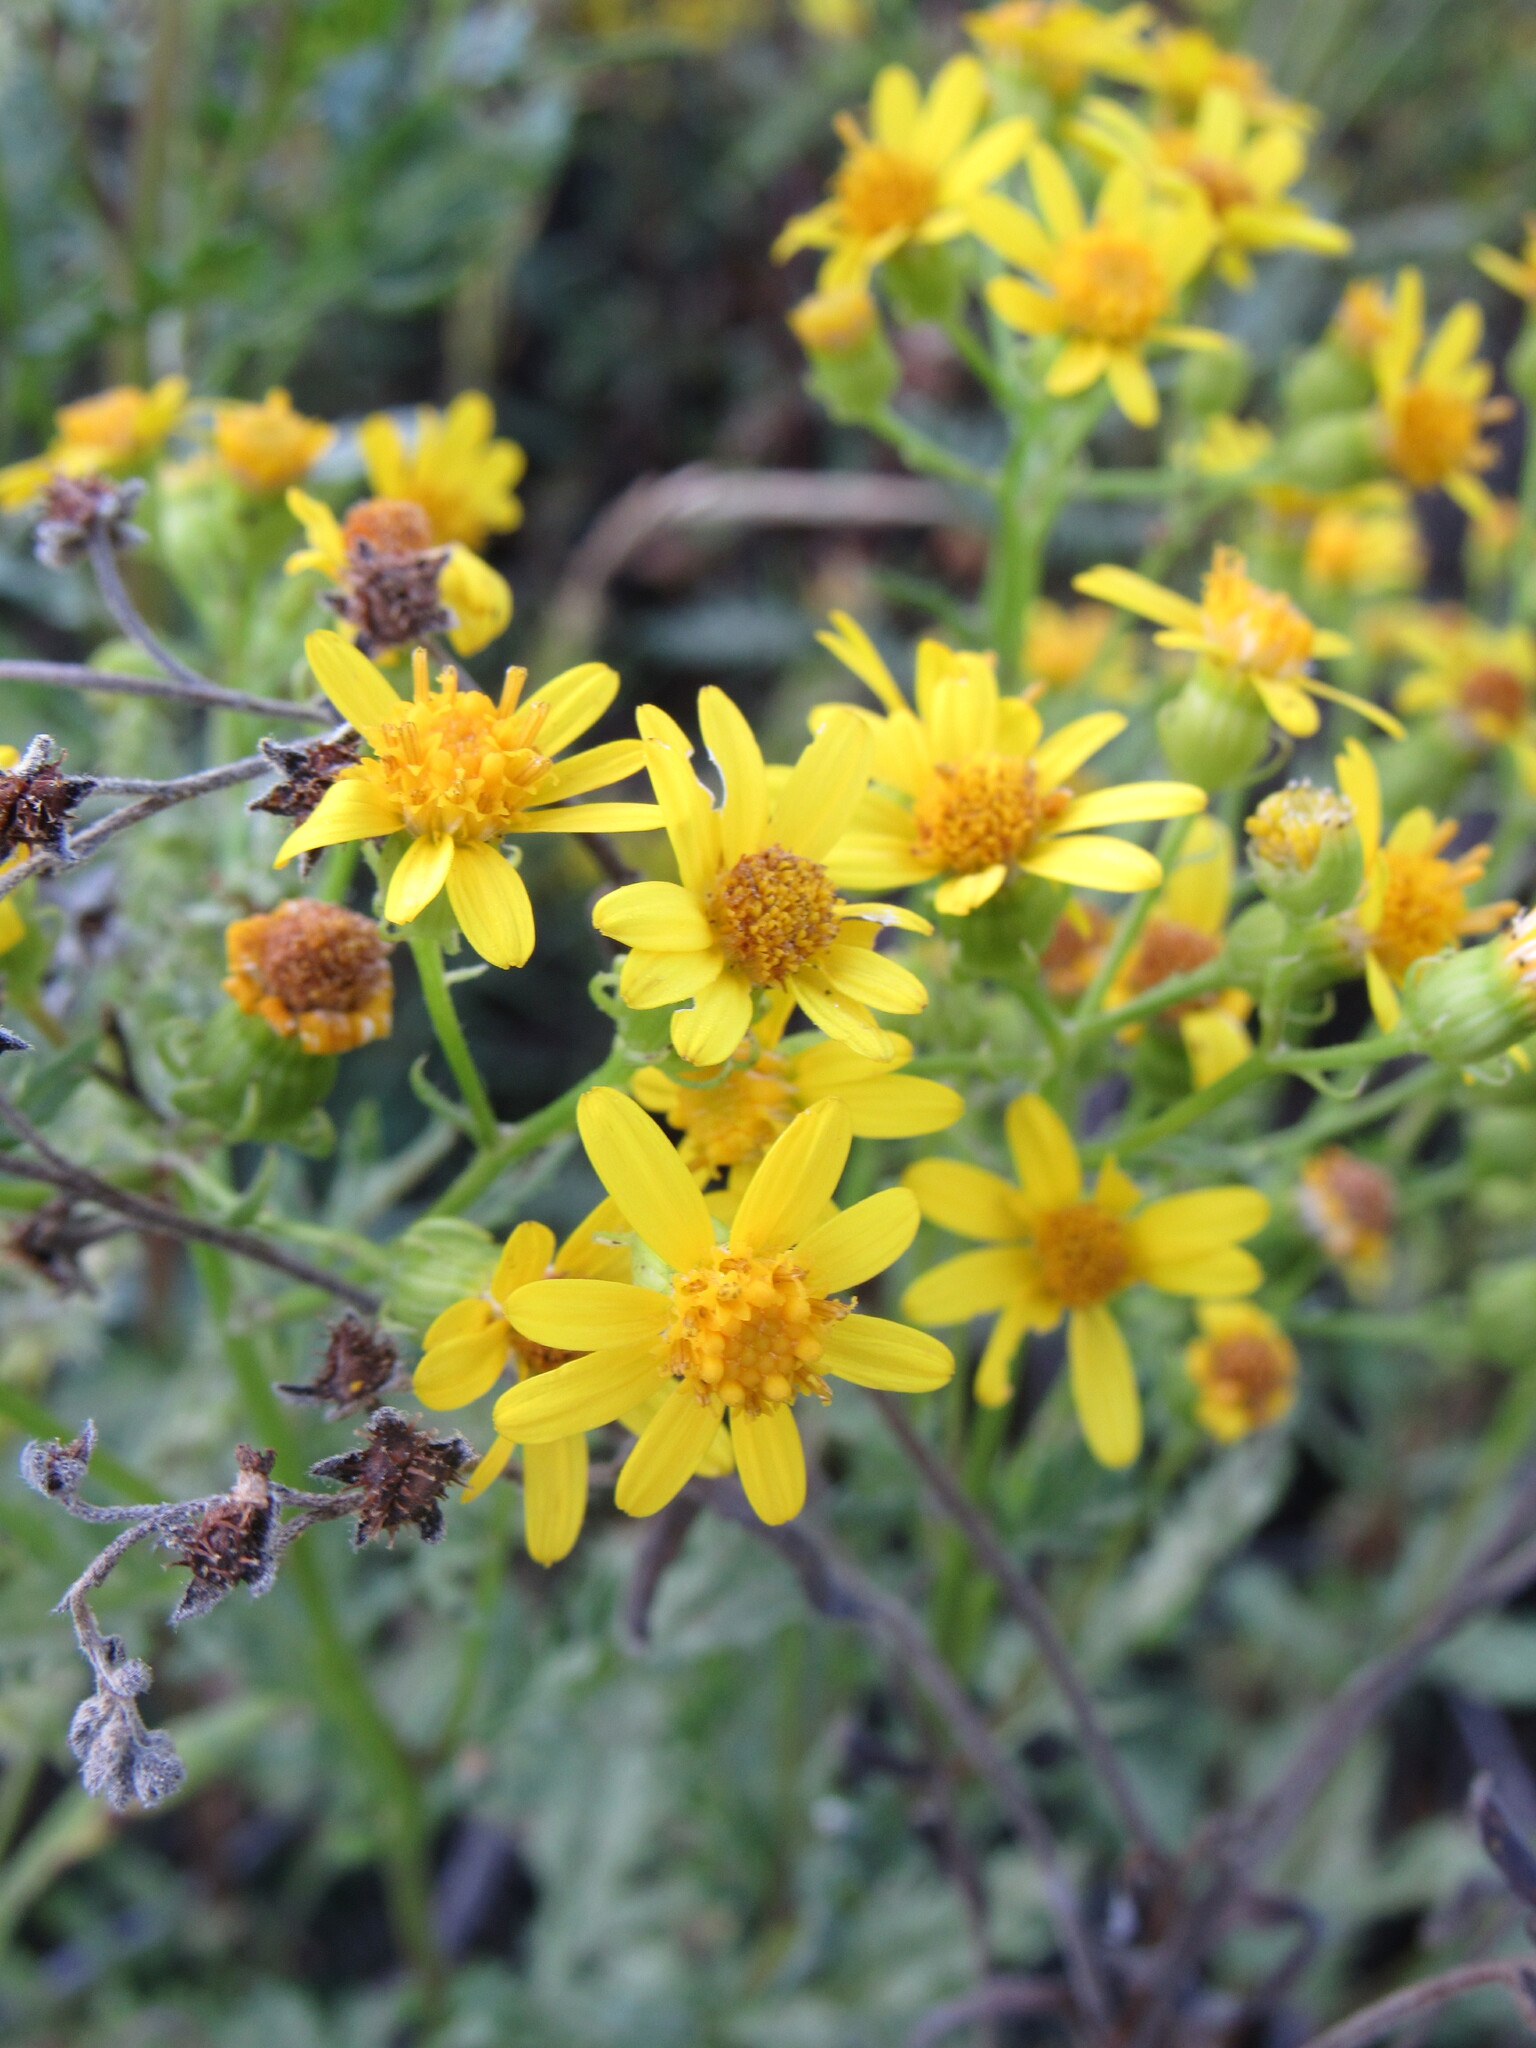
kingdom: Plantae
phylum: Tracheophyta
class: Magnoliopsida
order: Asterales
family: Asteraceae
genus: Senecio
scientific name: Senecio eremophilus
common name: Desert ragwort
